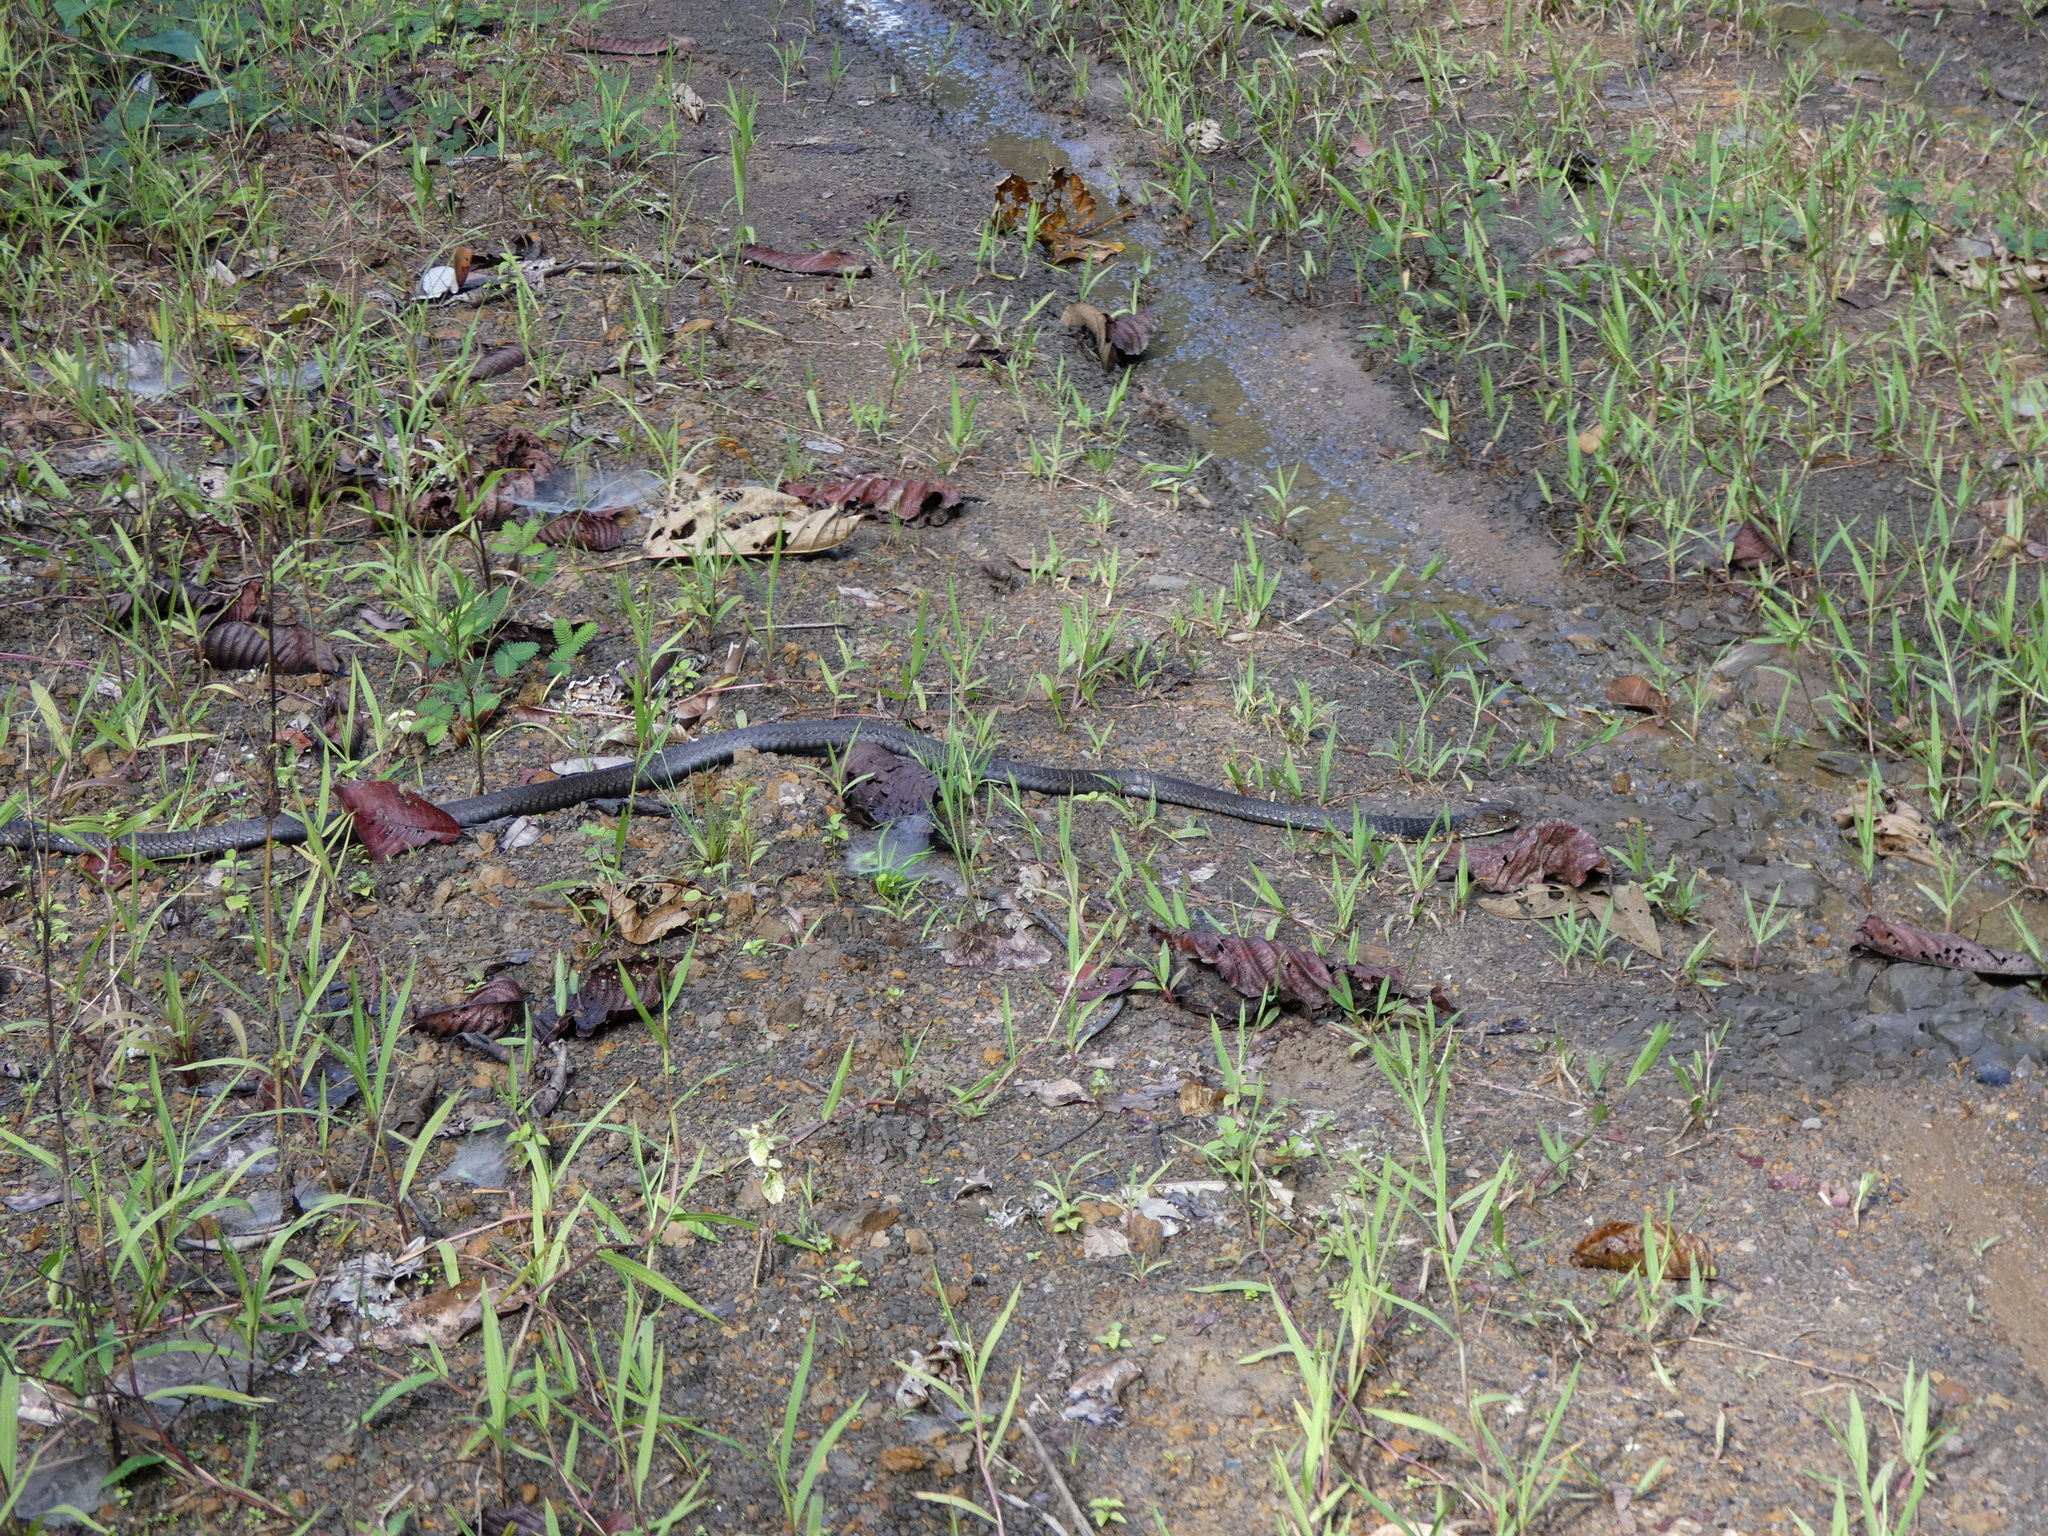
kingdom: Animalia
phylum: Chordata
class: Squamata
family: Elapidae
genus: Ophiophagus
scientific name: Ophiophagus hannah
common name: Hamadryad
